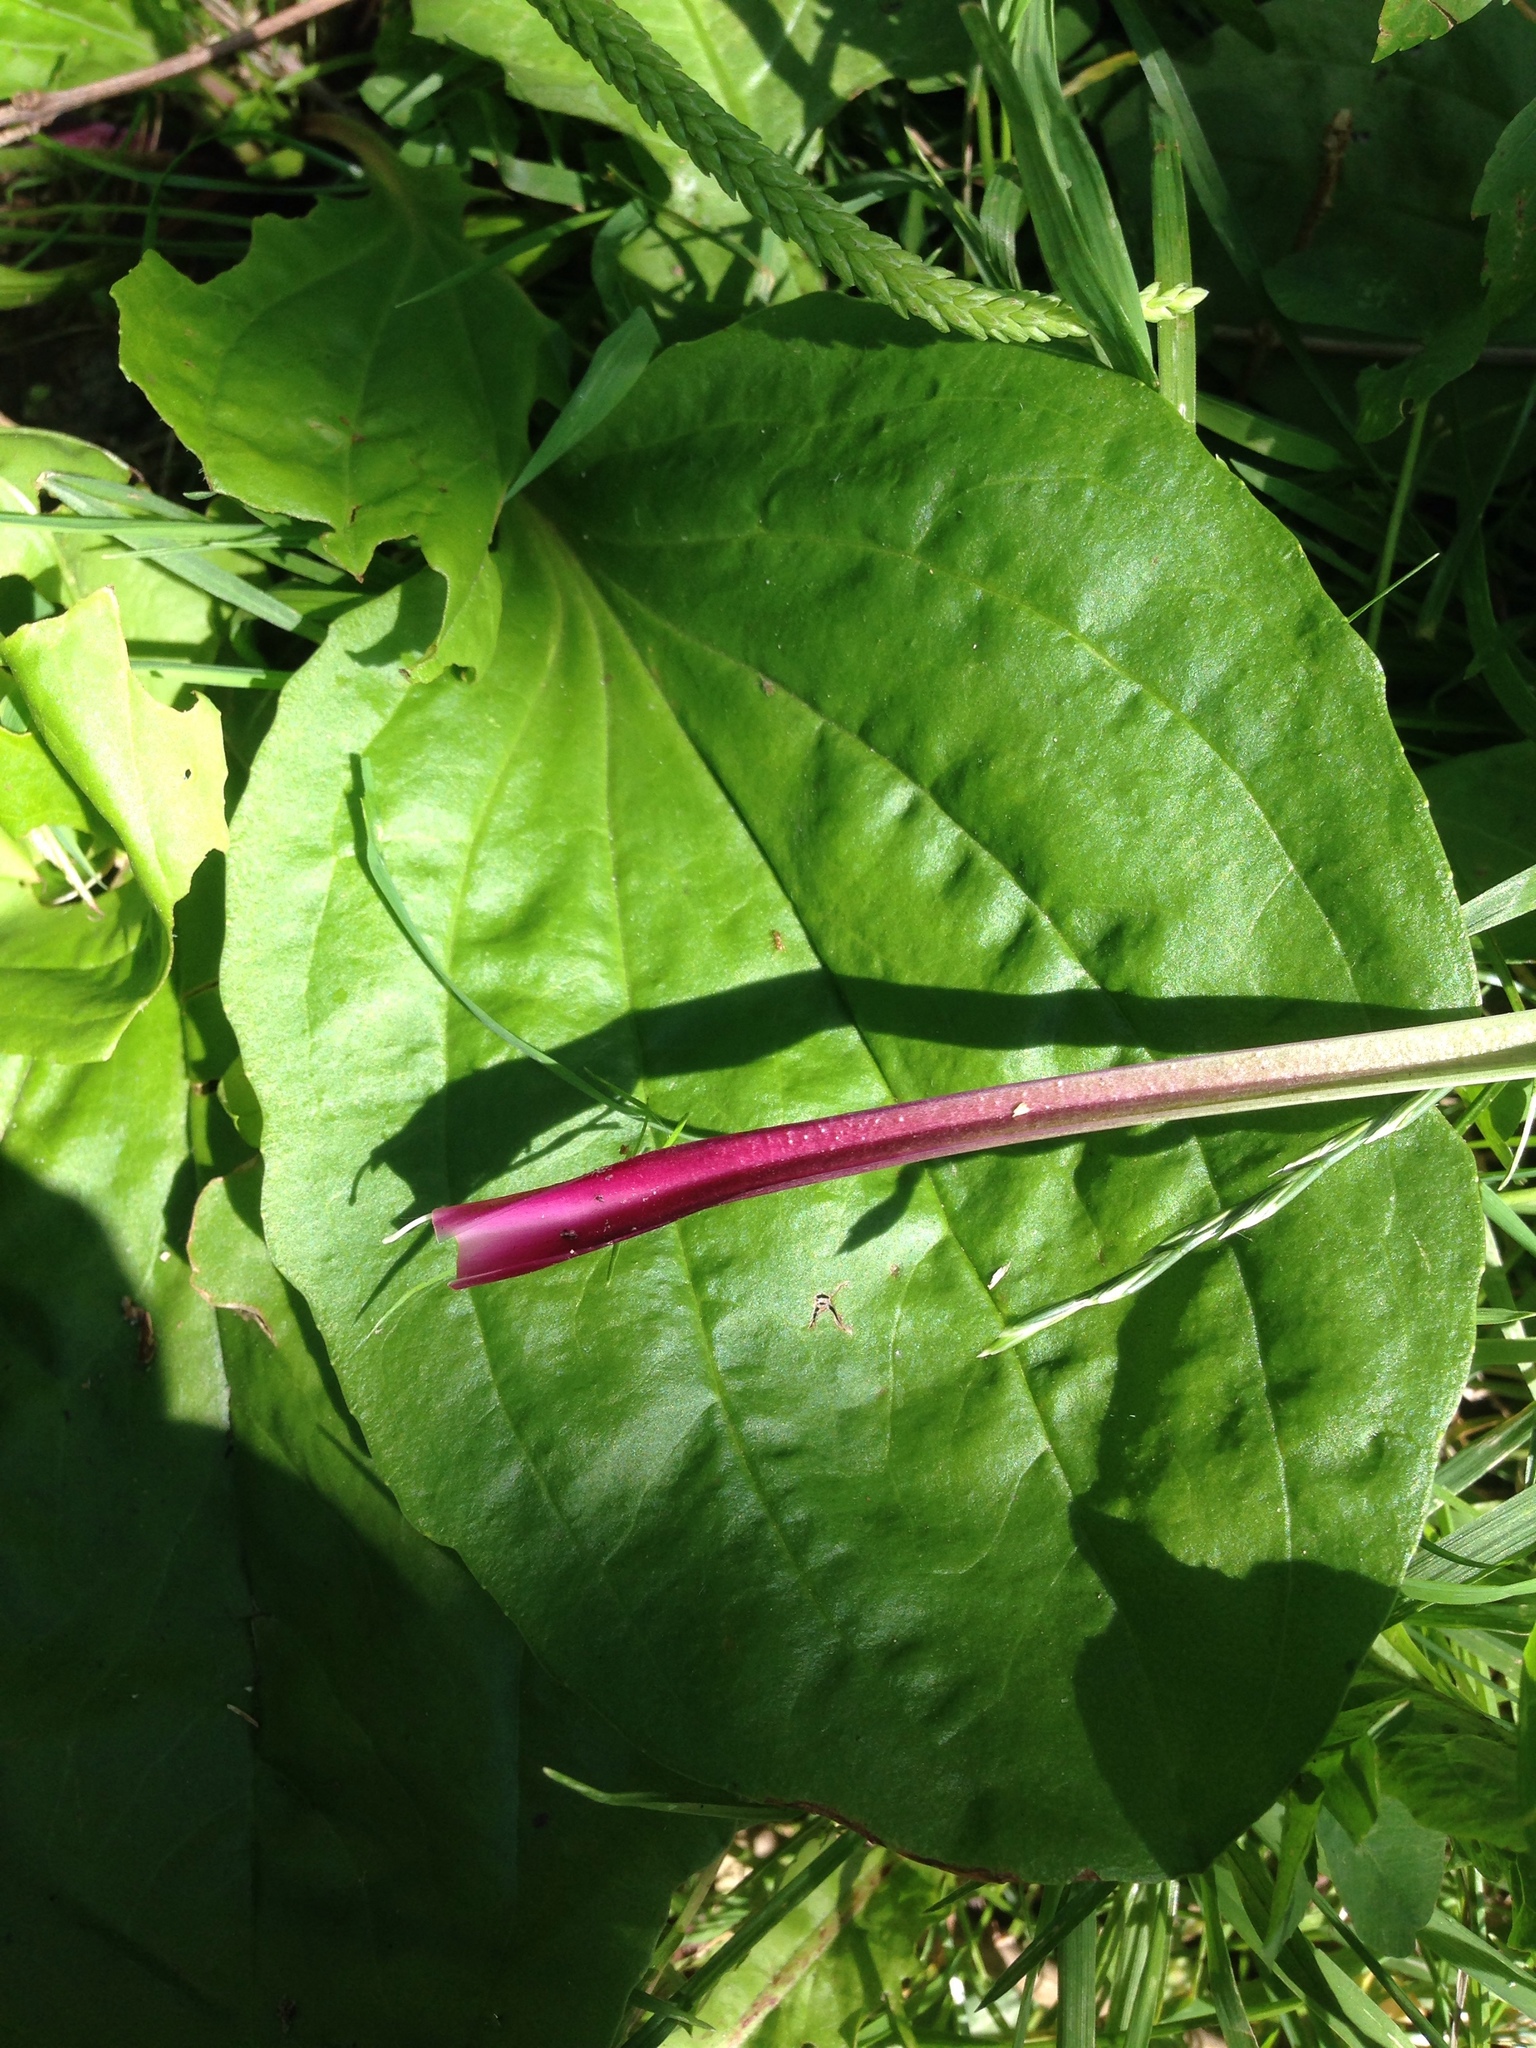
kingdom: Plantae
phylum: Tracheophyta
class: Magnoliopsida
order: Lamiales
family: Plantaginaceae
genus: Plantago
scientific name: Plantago rugelii
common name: American plantain
